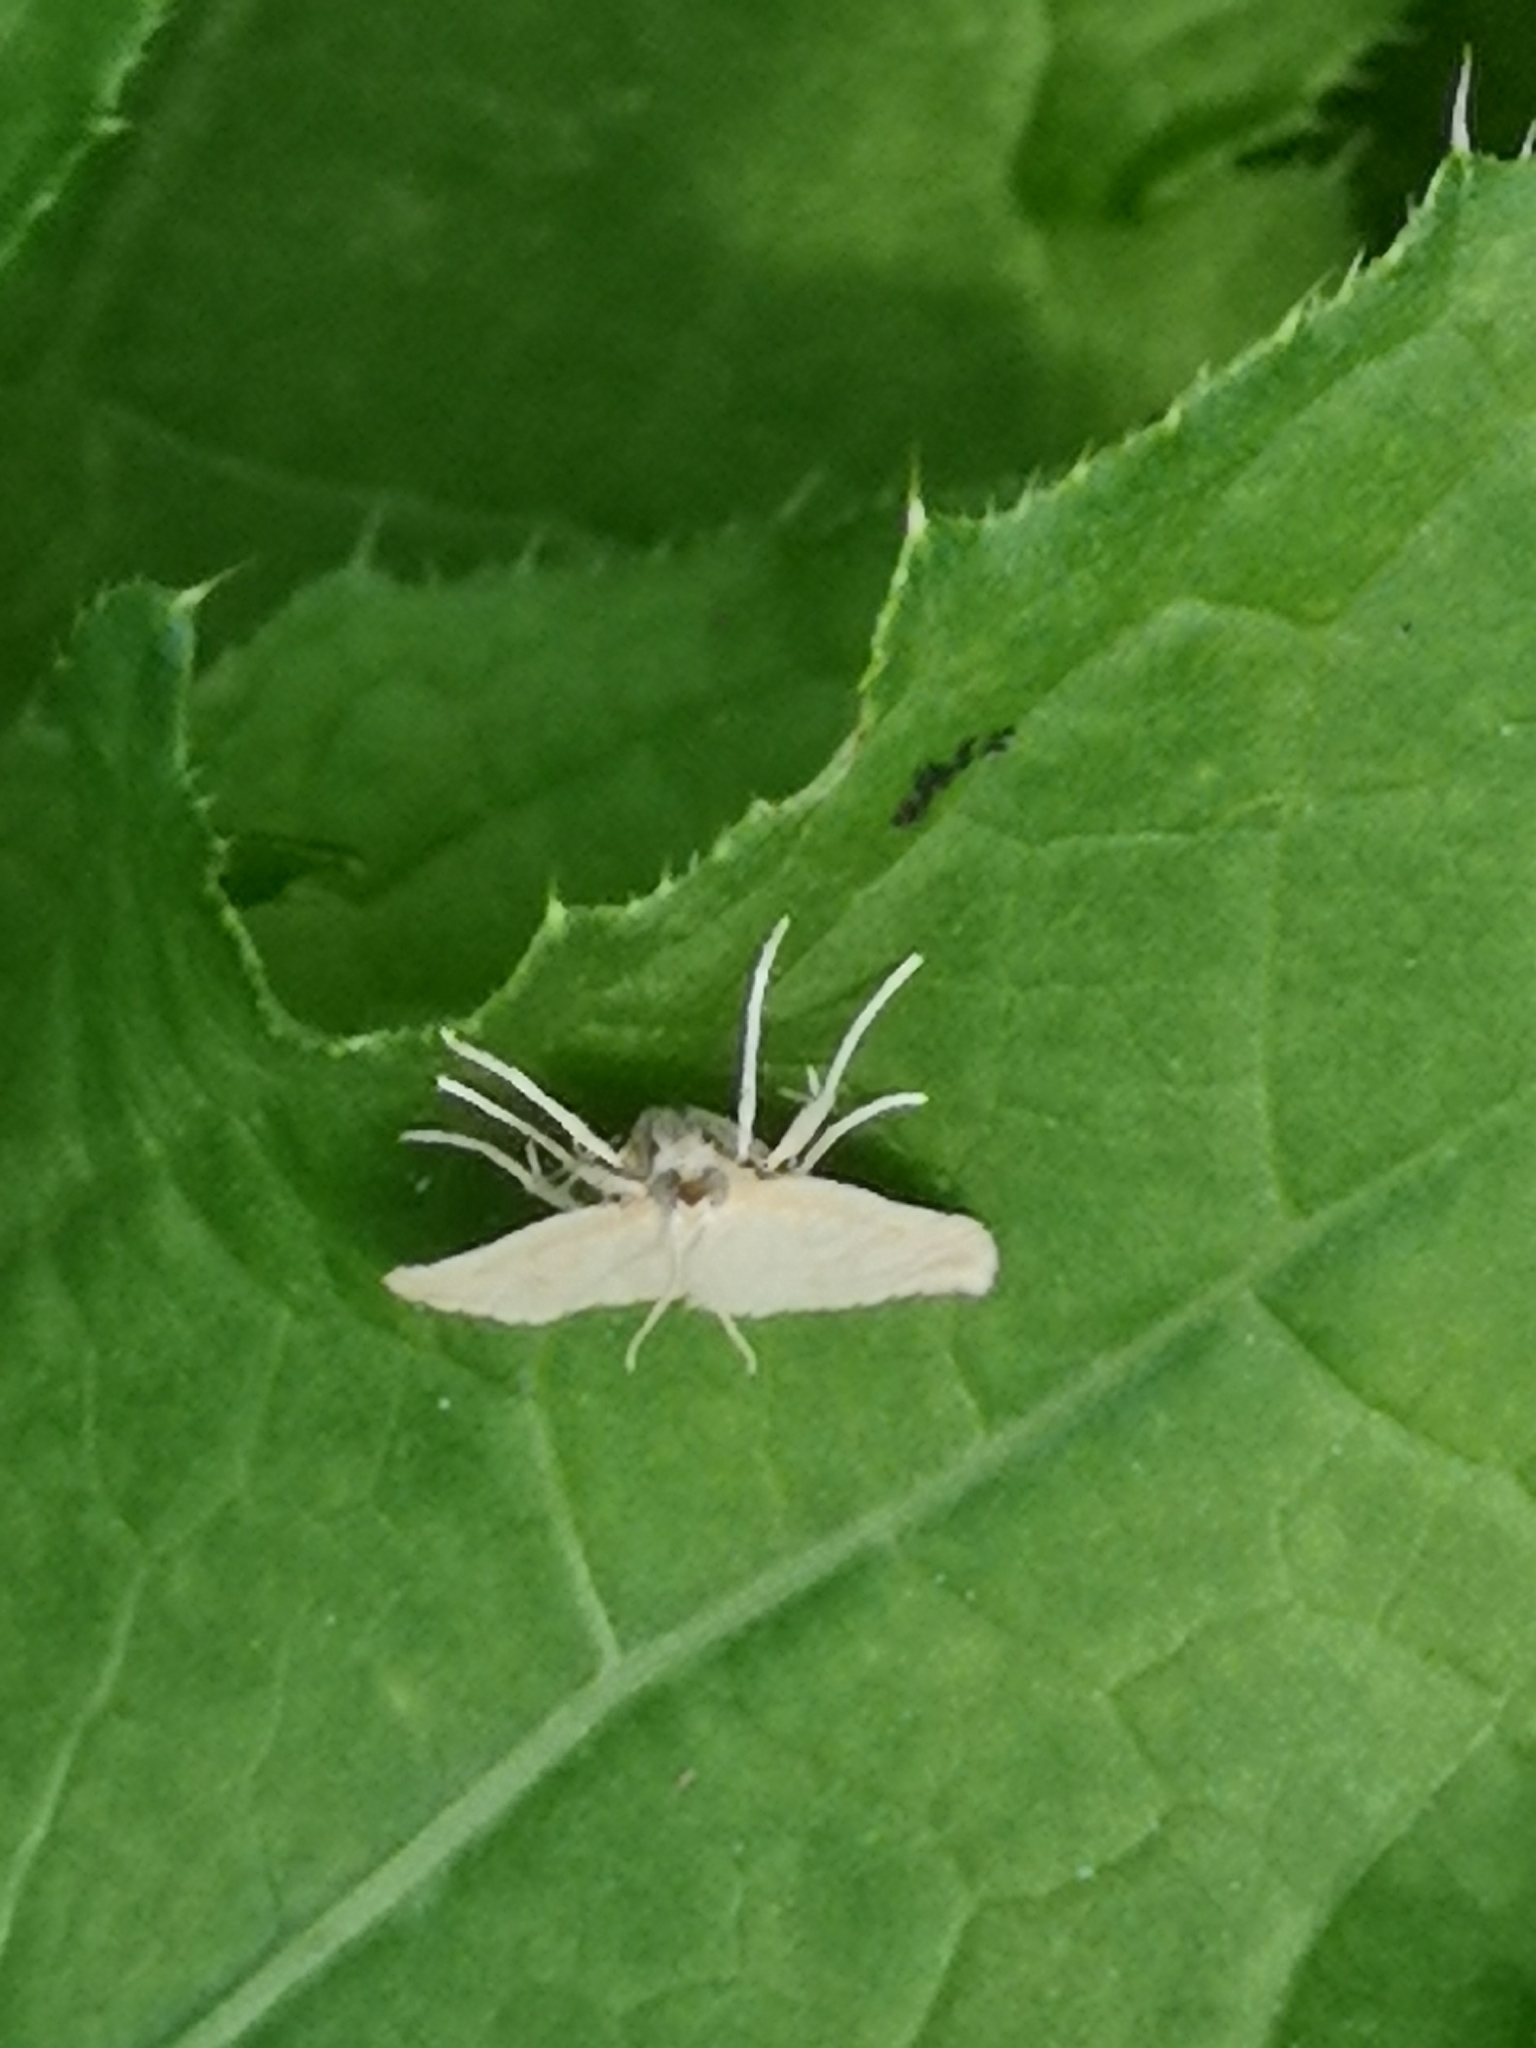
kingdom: Animalia
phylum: Arthropoda
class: Insecta
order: Lepidoptera
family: Crambidae
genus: Udea
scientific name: Udea lutealis
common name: Pale straw pearl
